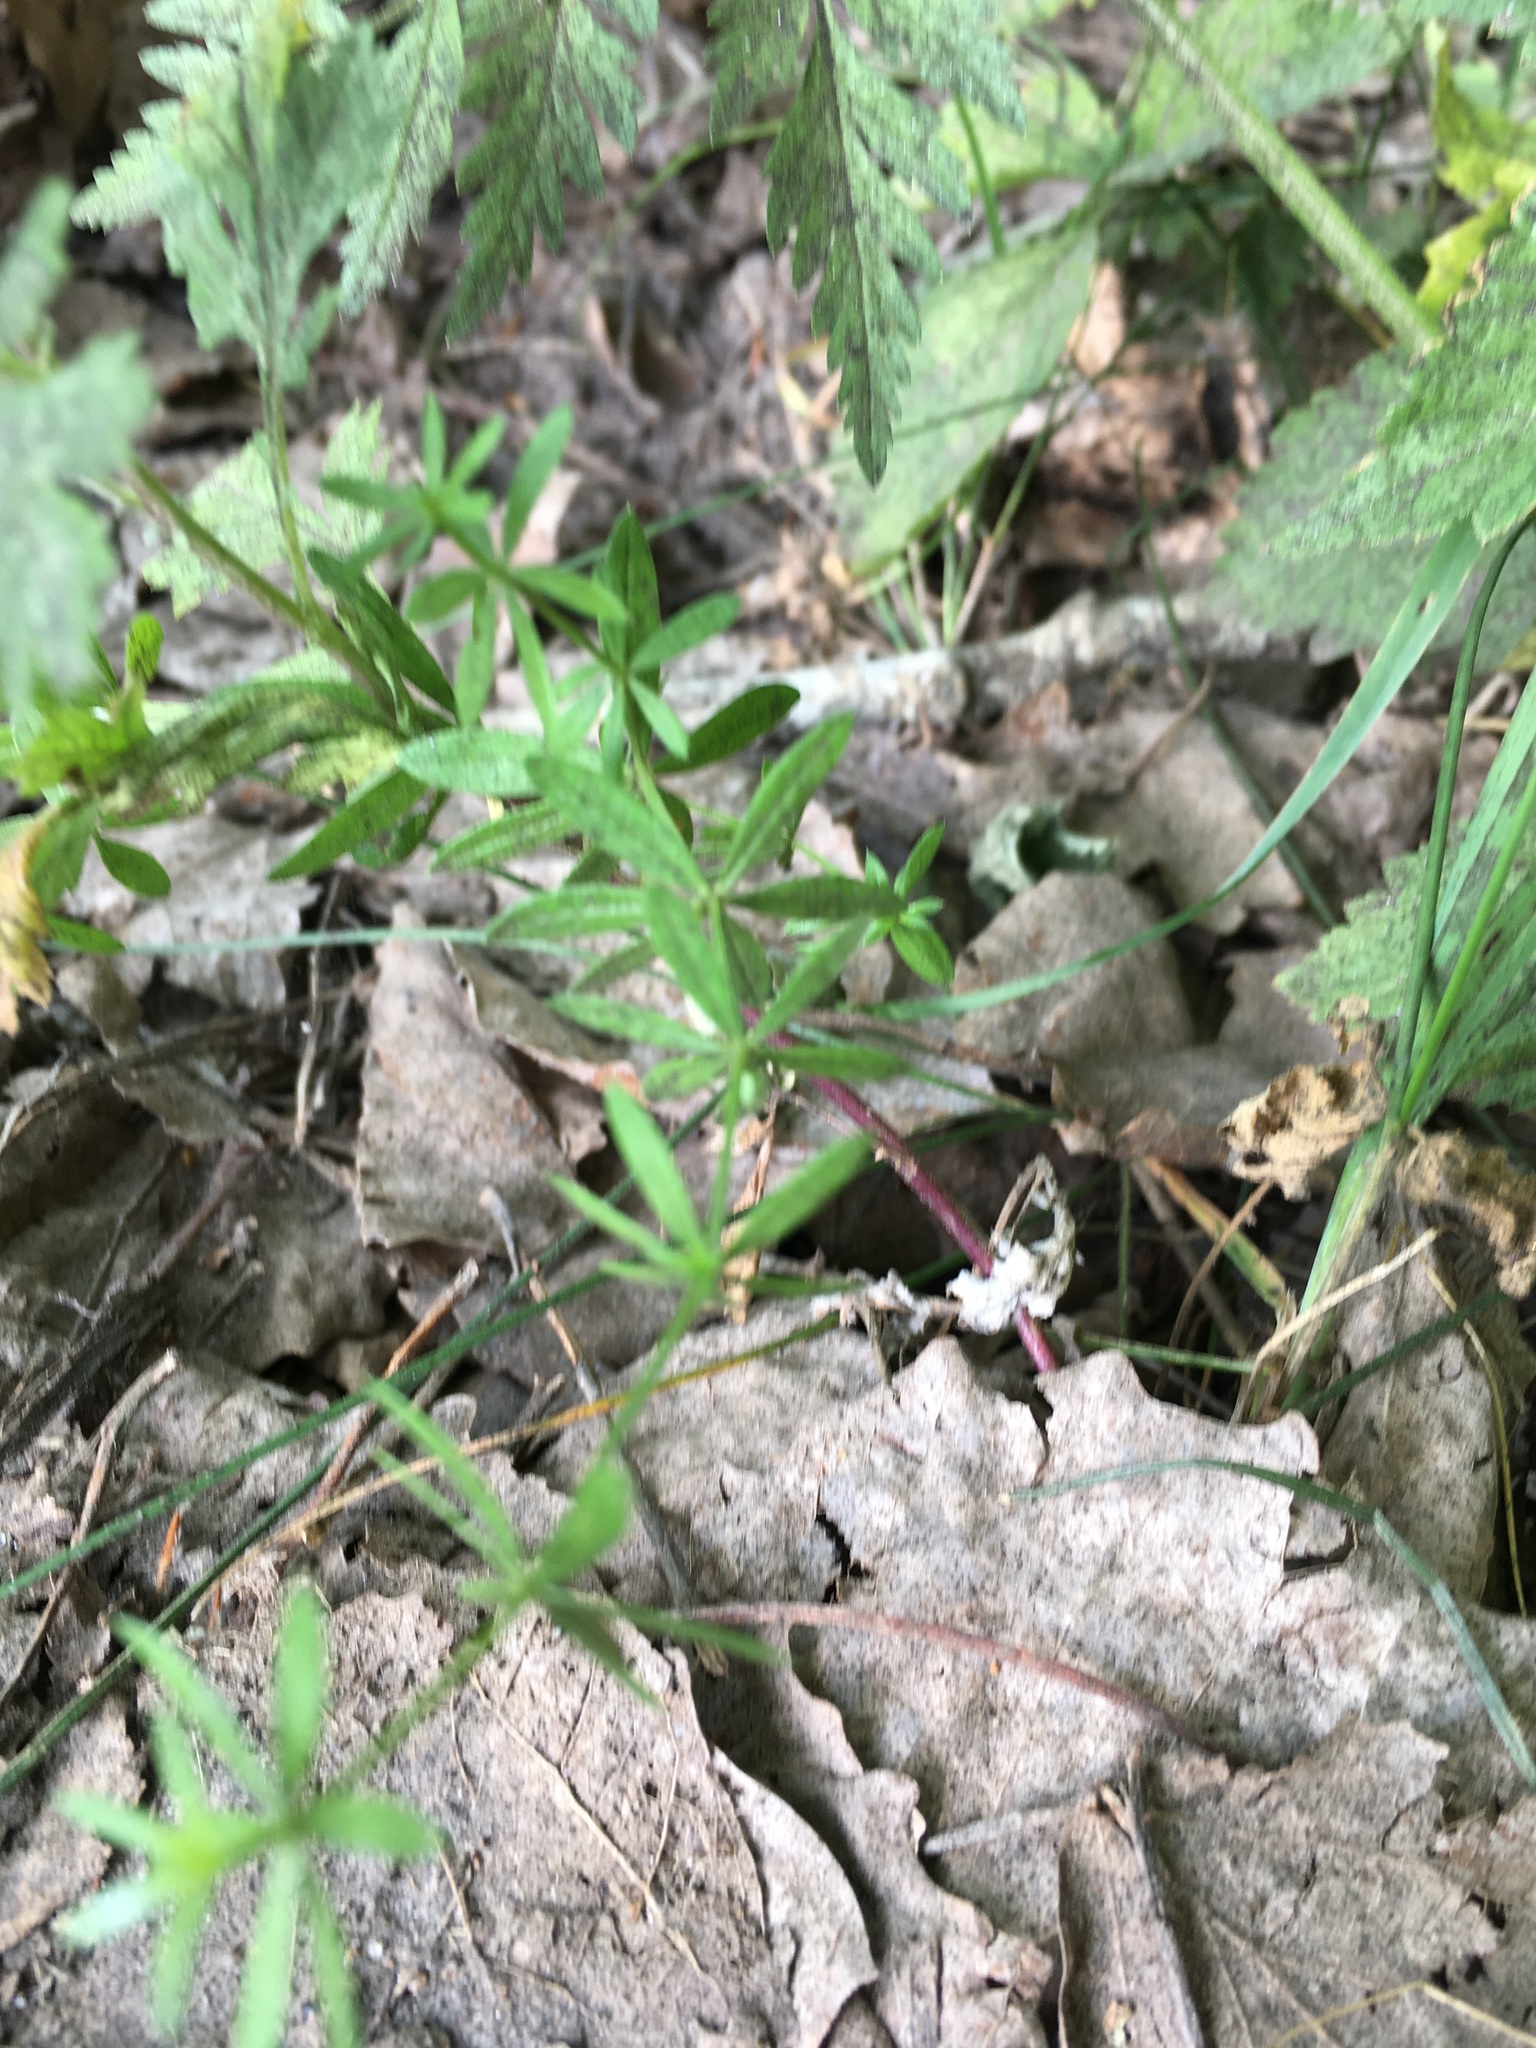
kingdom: Plantae
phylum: Tracheophyta
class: Magnoliopsida
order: Gentianales
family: Rubiaceae
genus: Galium
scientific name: Galium mollugo
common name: Hedge bedstraw
